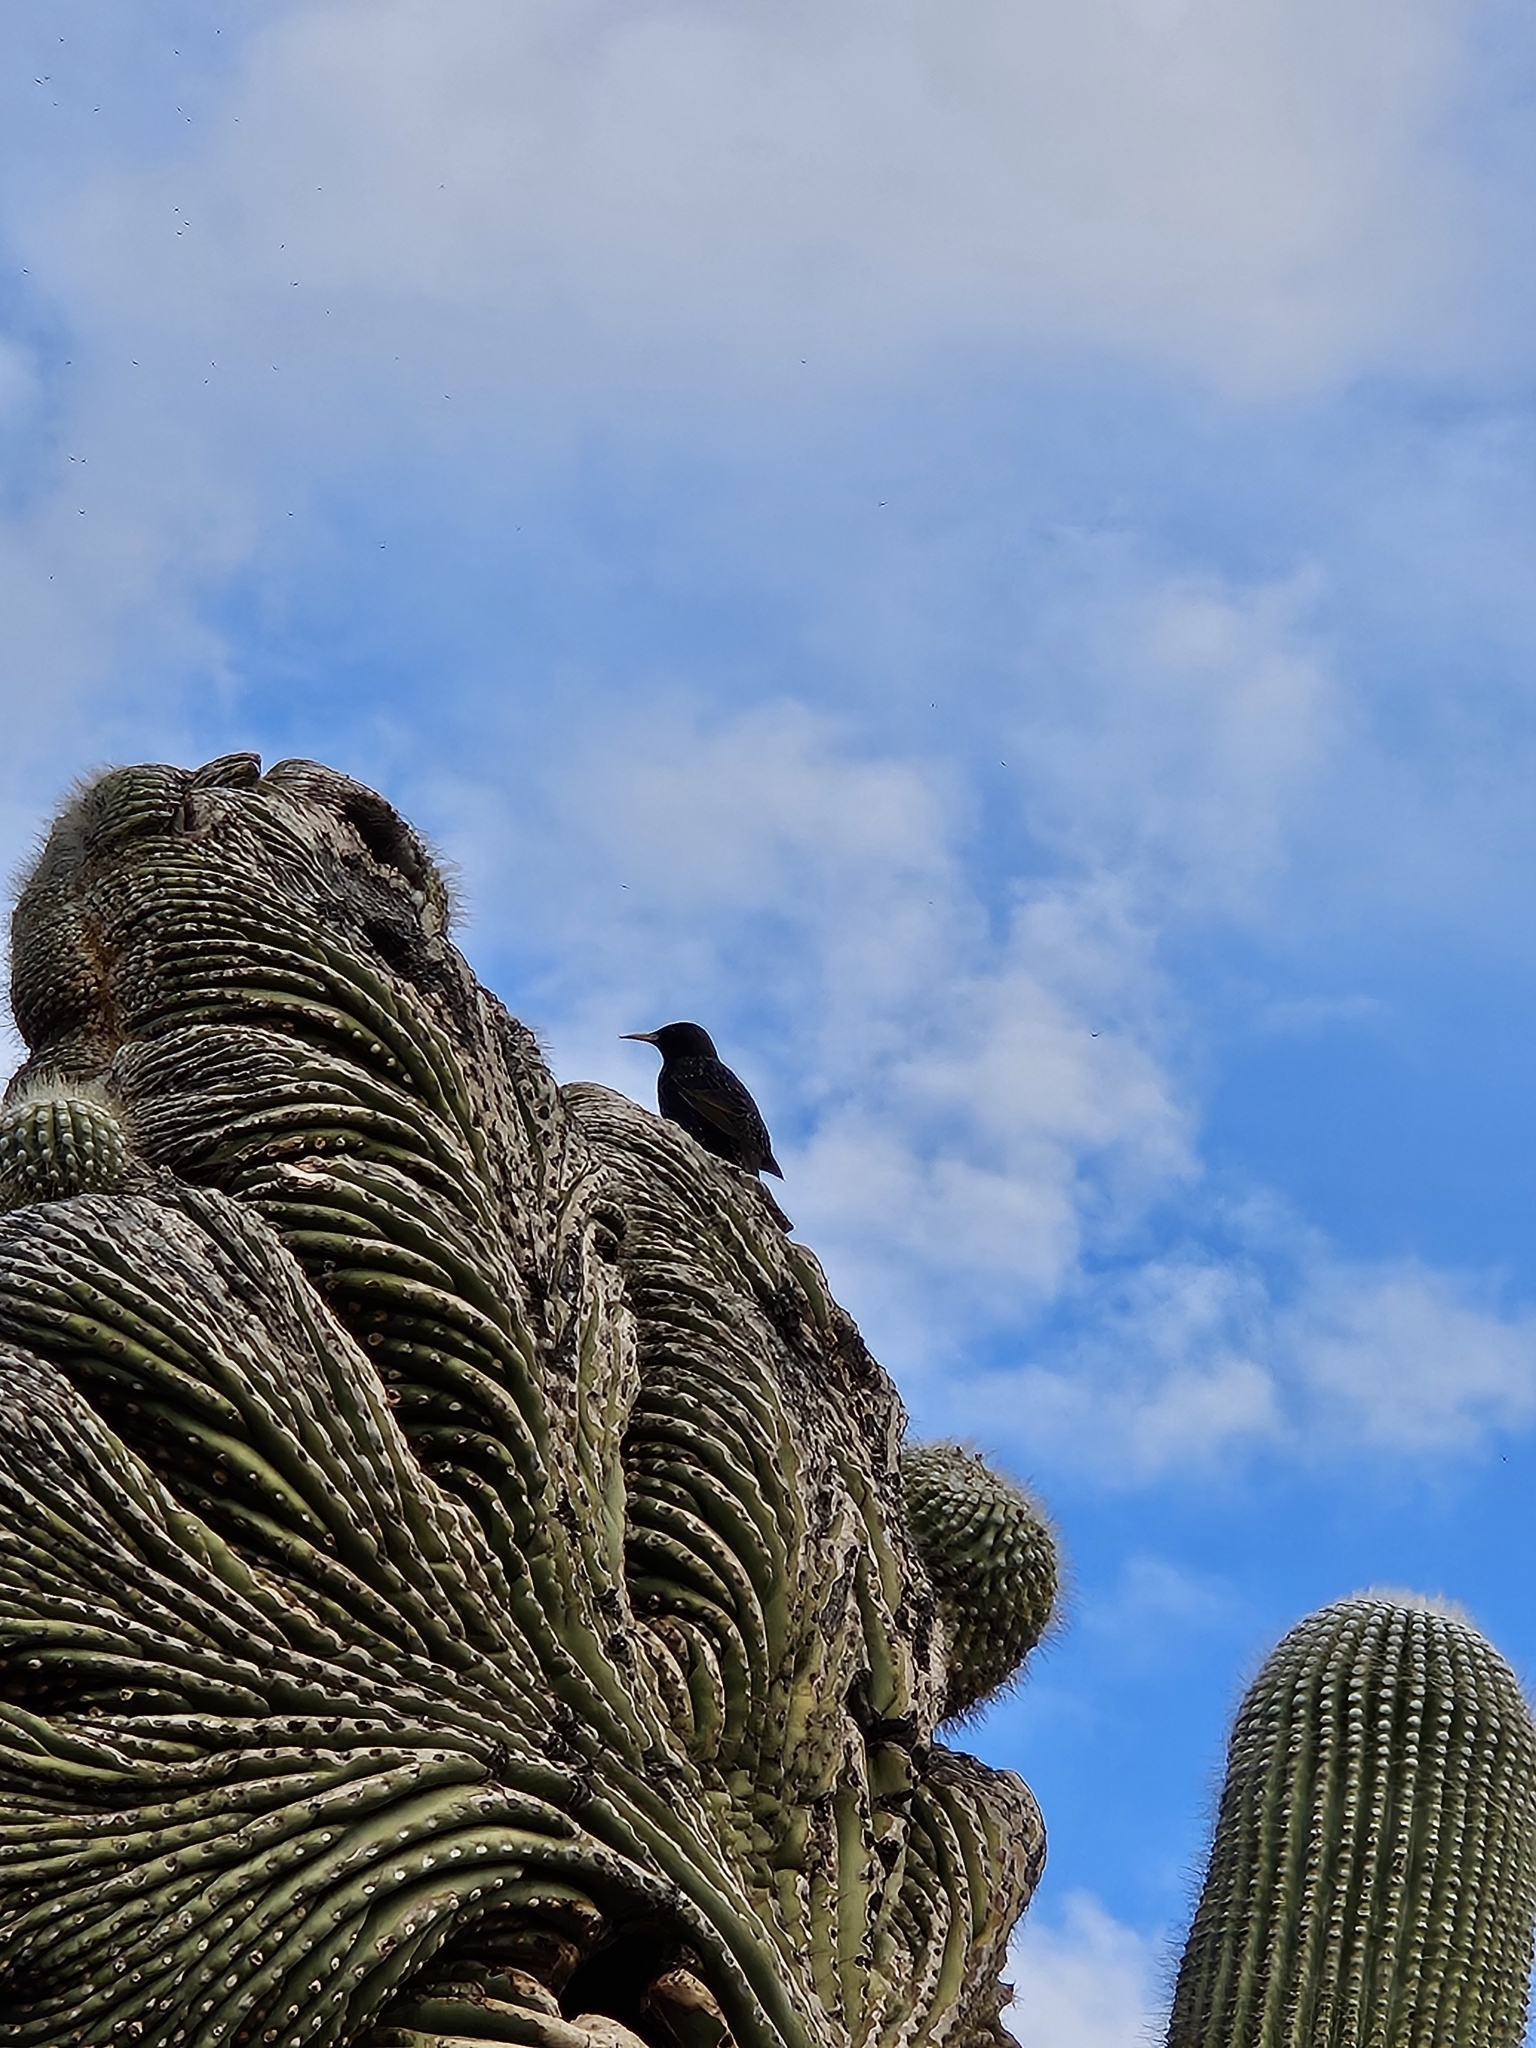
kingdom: Animalia
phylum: Chordata
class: Aves
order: Passeriformes
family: Sturnidae
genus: Sturnus
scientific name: Sturnus vulgaris
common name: Common starling
